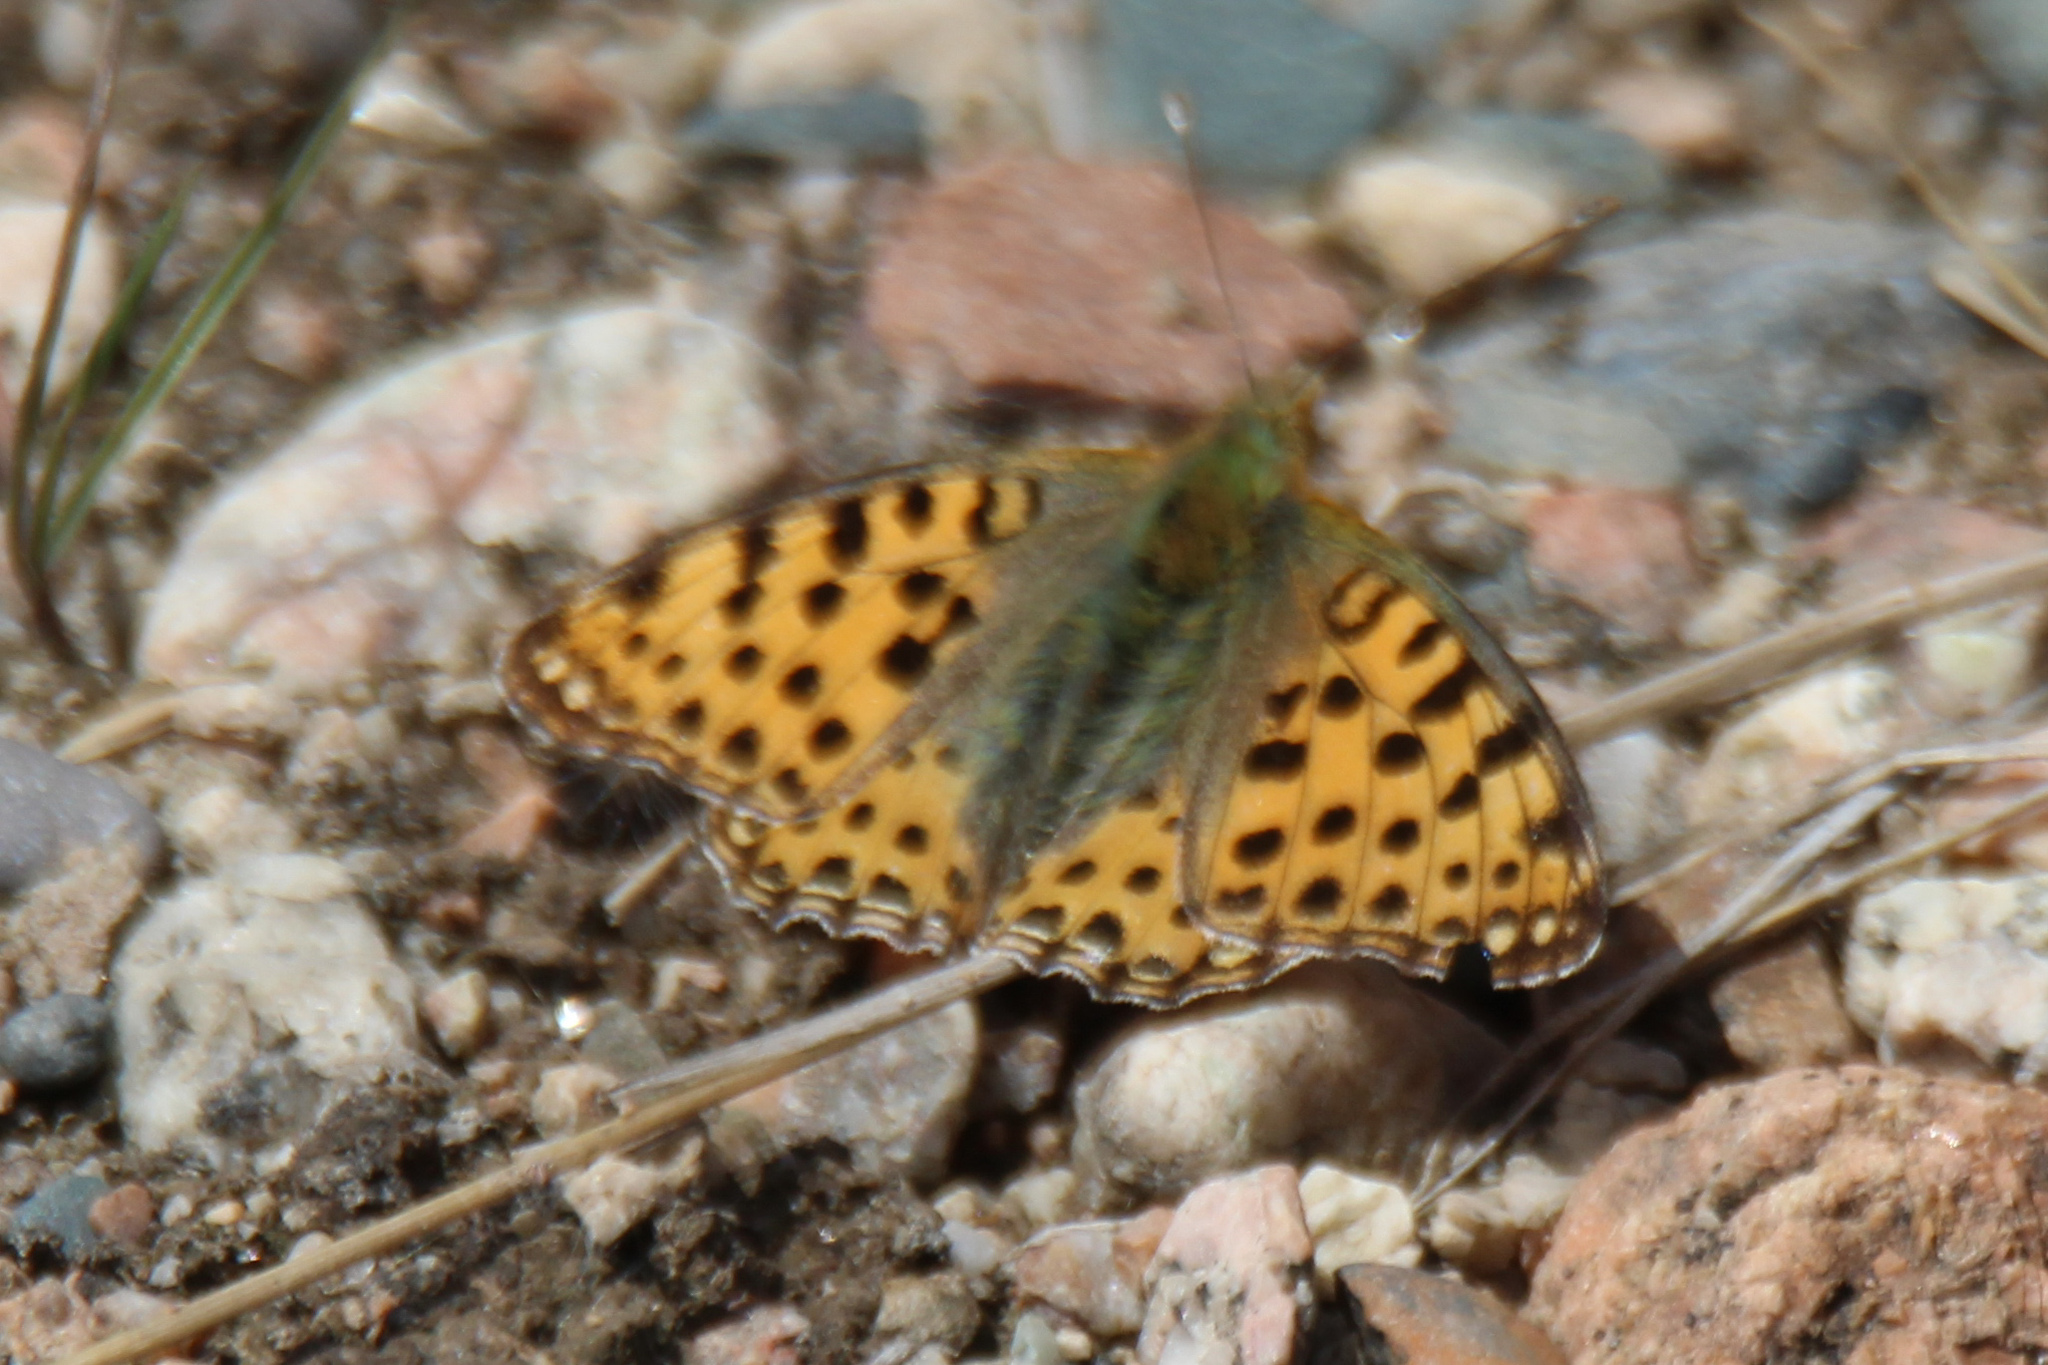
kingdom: Animalia
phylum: Arthropoda
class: Insecta
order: Lepidoptera
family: Nymphalidae
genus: Issoria
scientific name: Issoria lathonia
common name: Queen of spain fritillary
